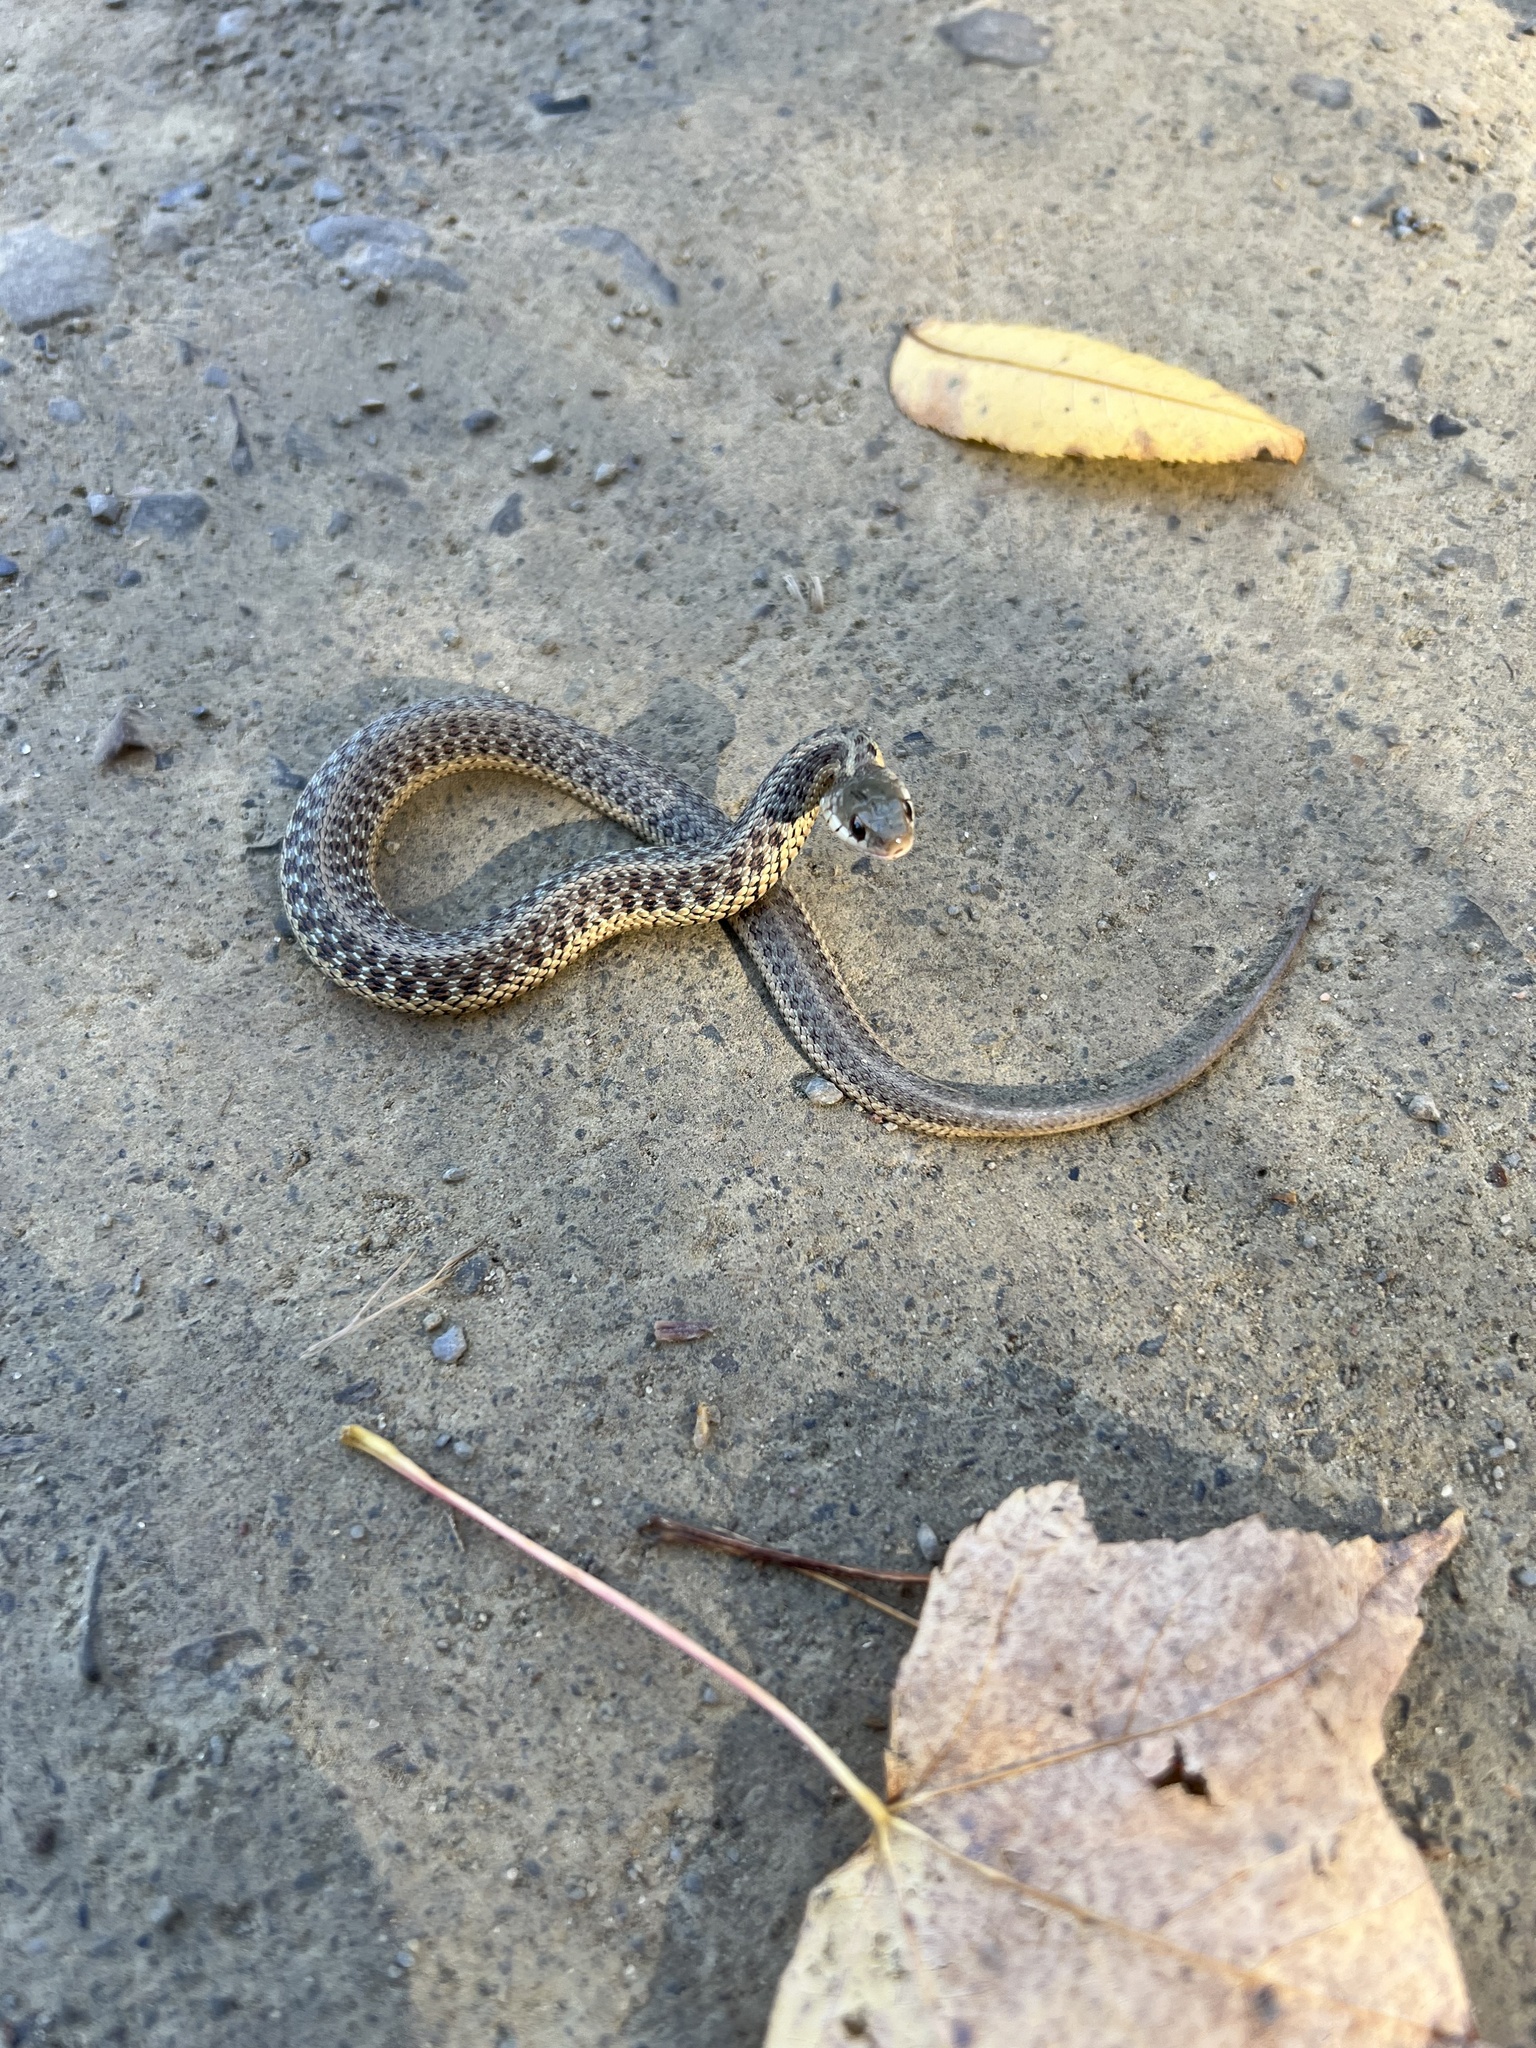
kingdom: Animalia
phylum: Chordata
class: Squamata
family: Colubridae
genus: Thamnophis
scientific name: Thamnophis sirtalis
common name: Common garter snake
